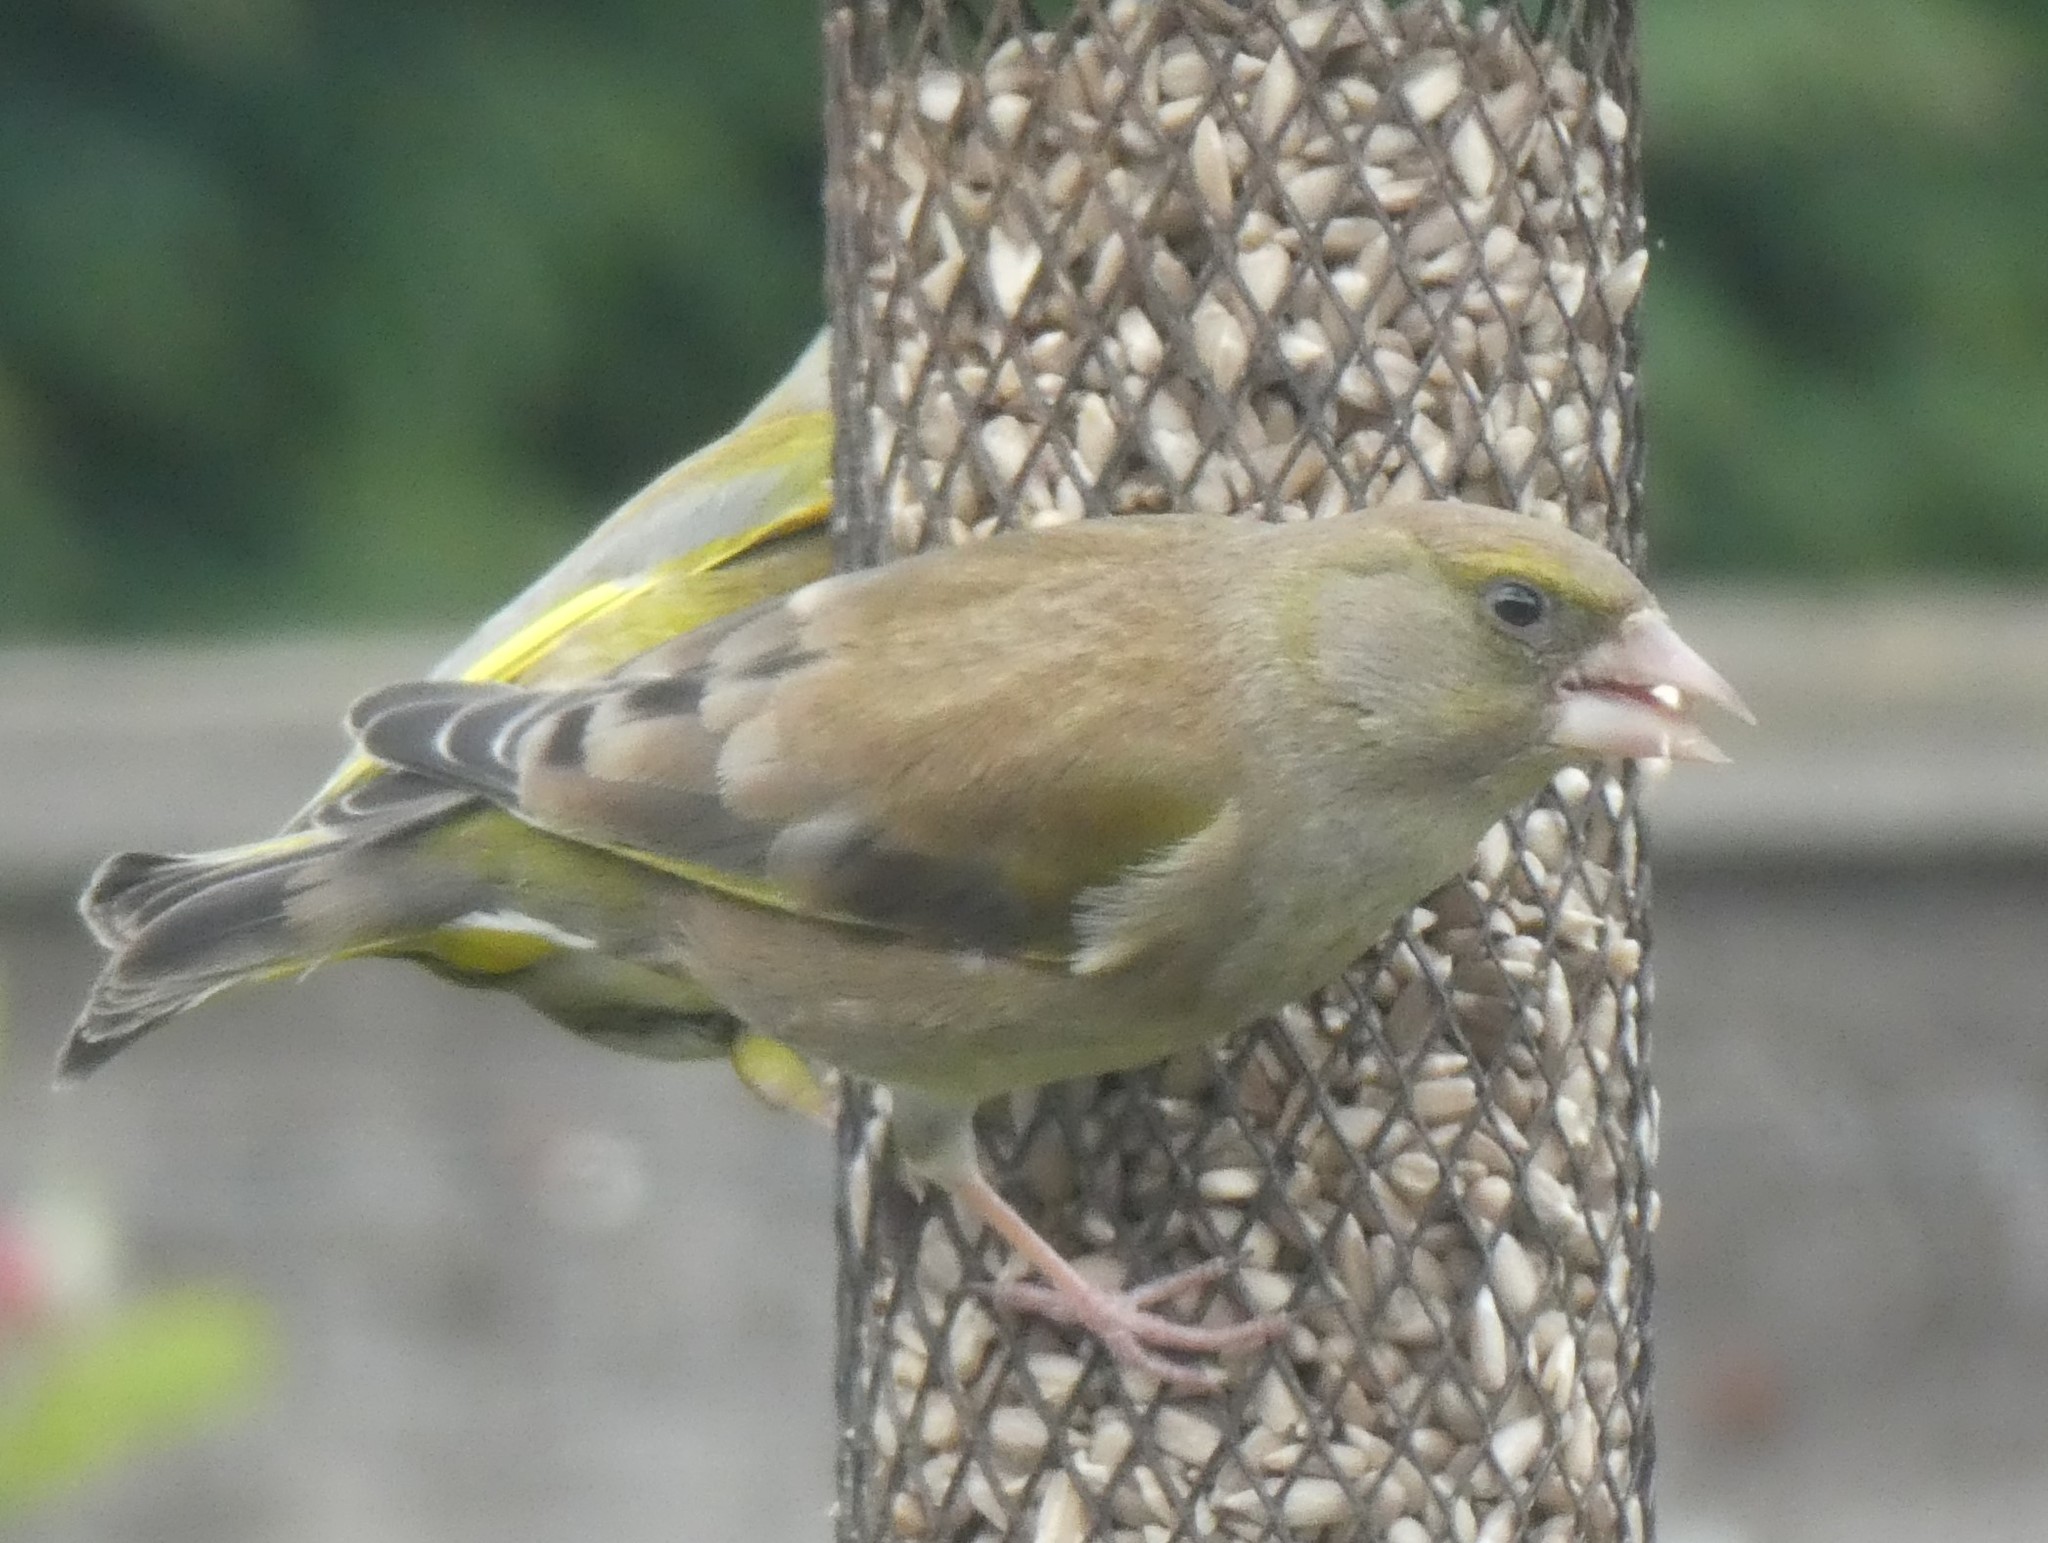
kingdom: Plantae
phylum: Tracheophyta
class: Liliopsida
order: Poales
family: Poaceae
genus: Chloris
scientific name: Chloris chloris
